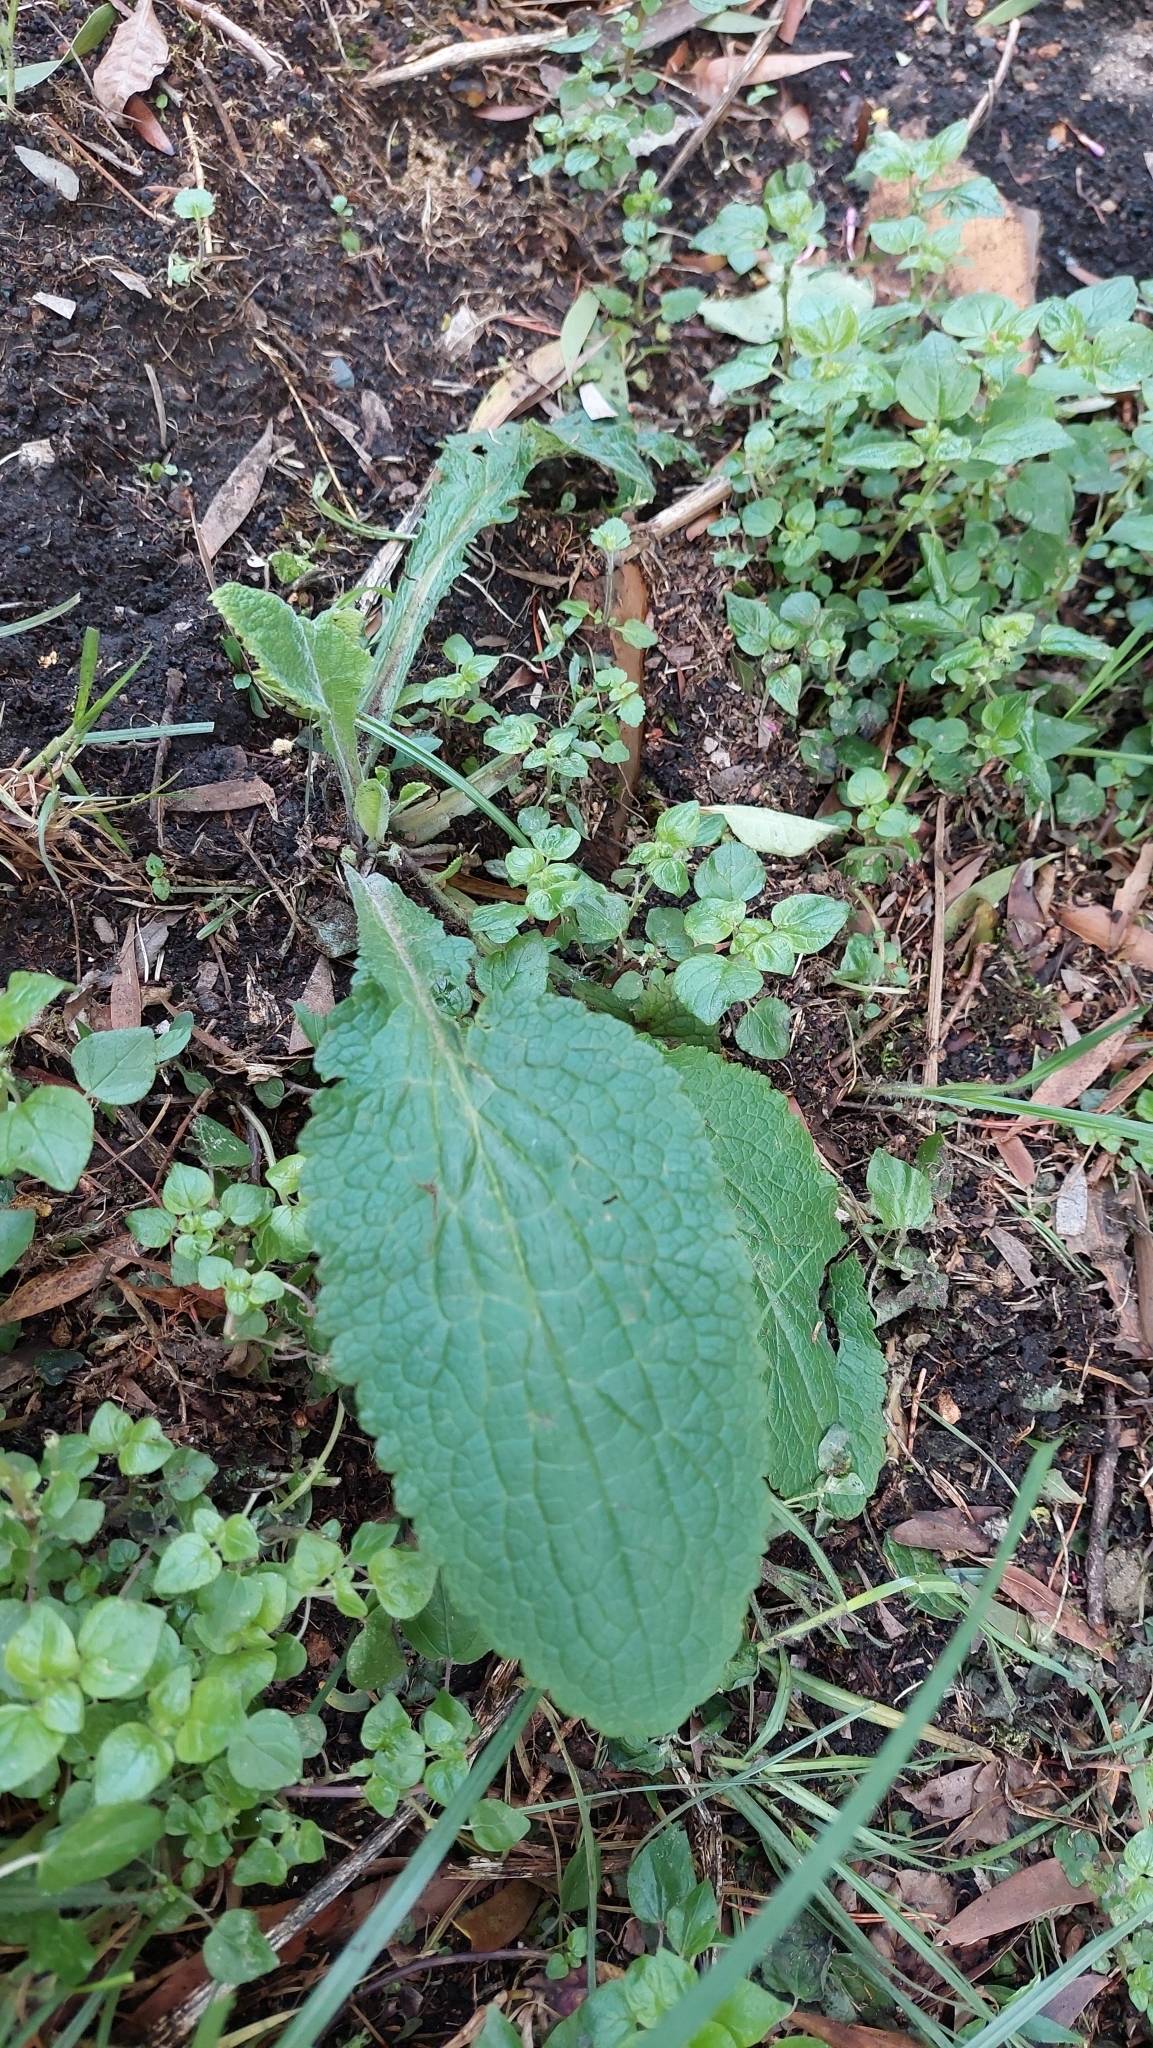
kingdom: Plantae
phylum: Tracheophyta
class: Magnoliopsida
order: Lamiales
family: Plantaginaceae
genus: Digitalis
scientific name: Digitalis purpurea
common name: Foxglove
